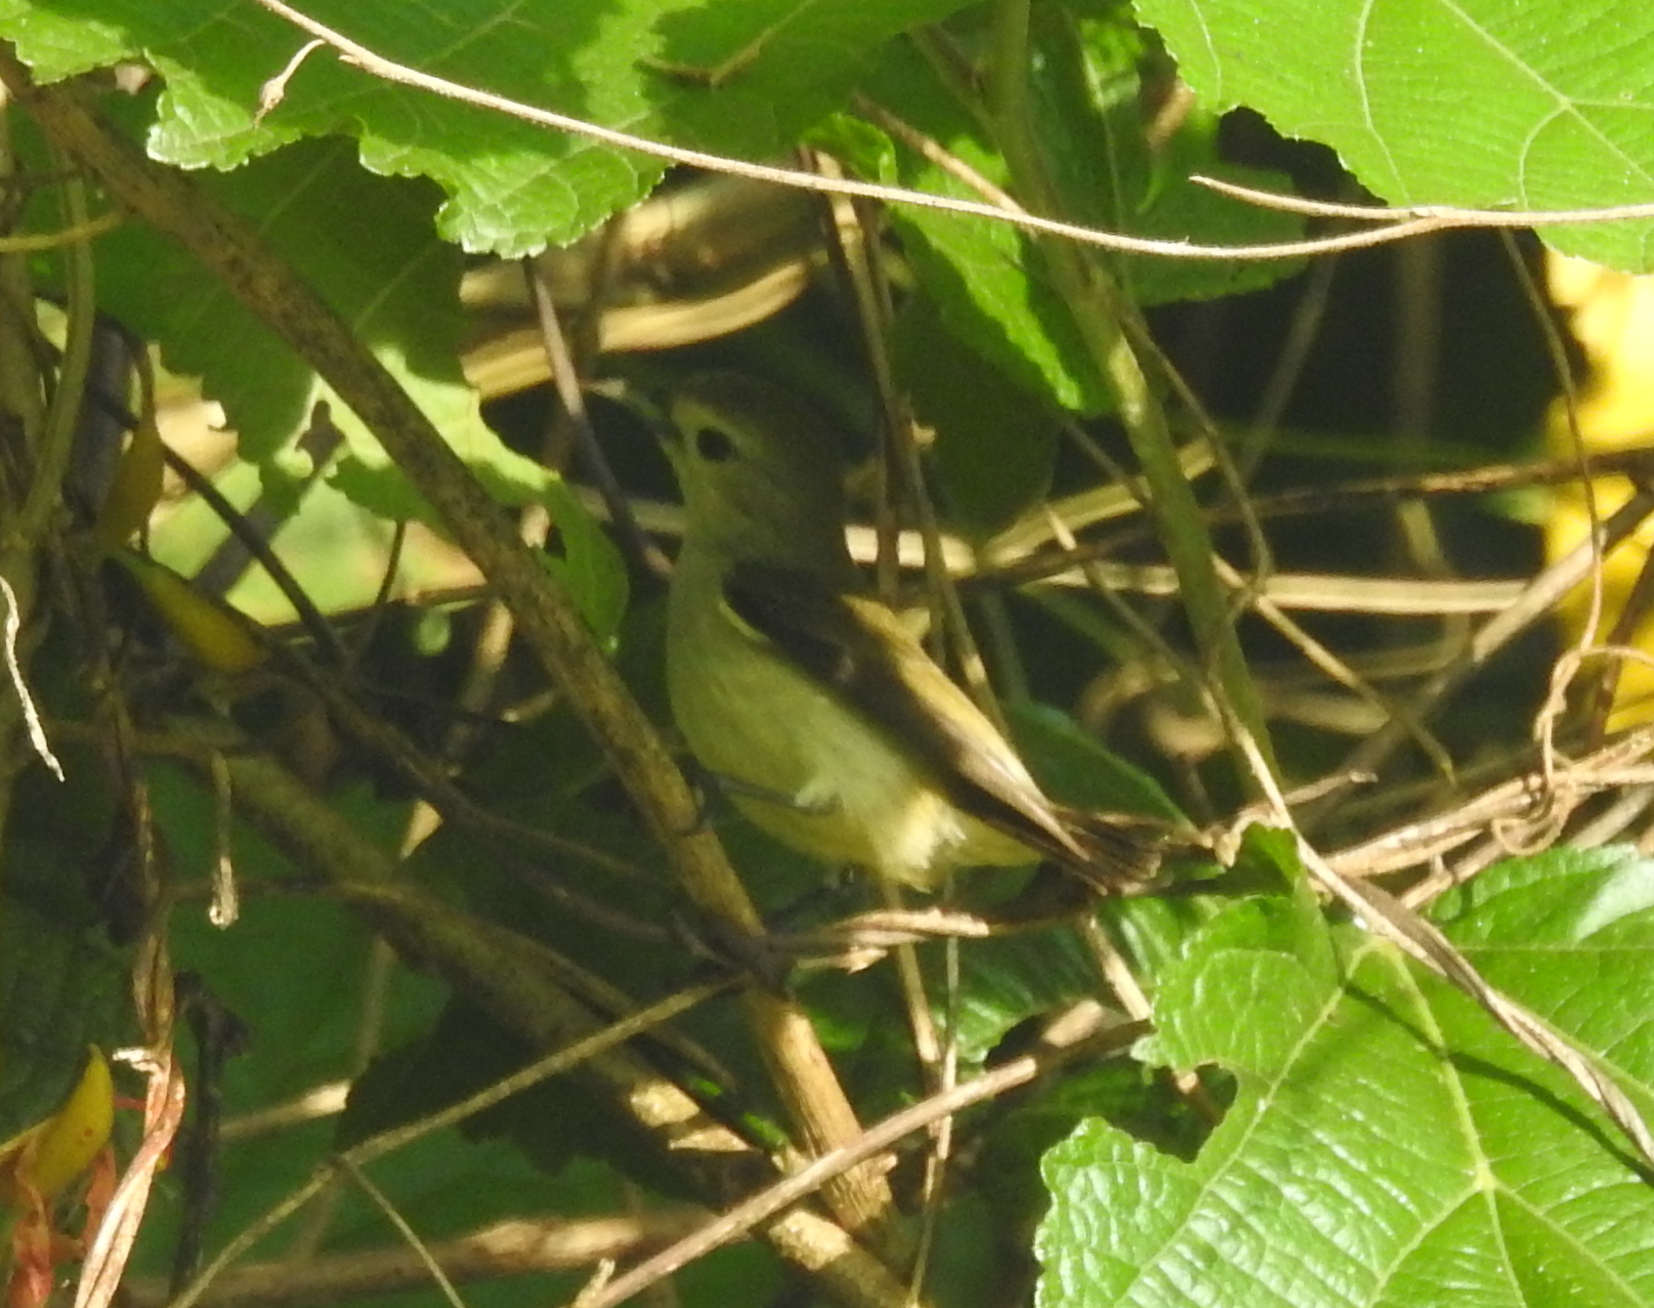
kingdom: Animalia
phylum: Chordata
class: Aves
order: Passeriformes
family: Dicaeidae
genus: Dicaeum
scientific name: Dicaeum concolor
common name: Nilgiri flowerpecker
